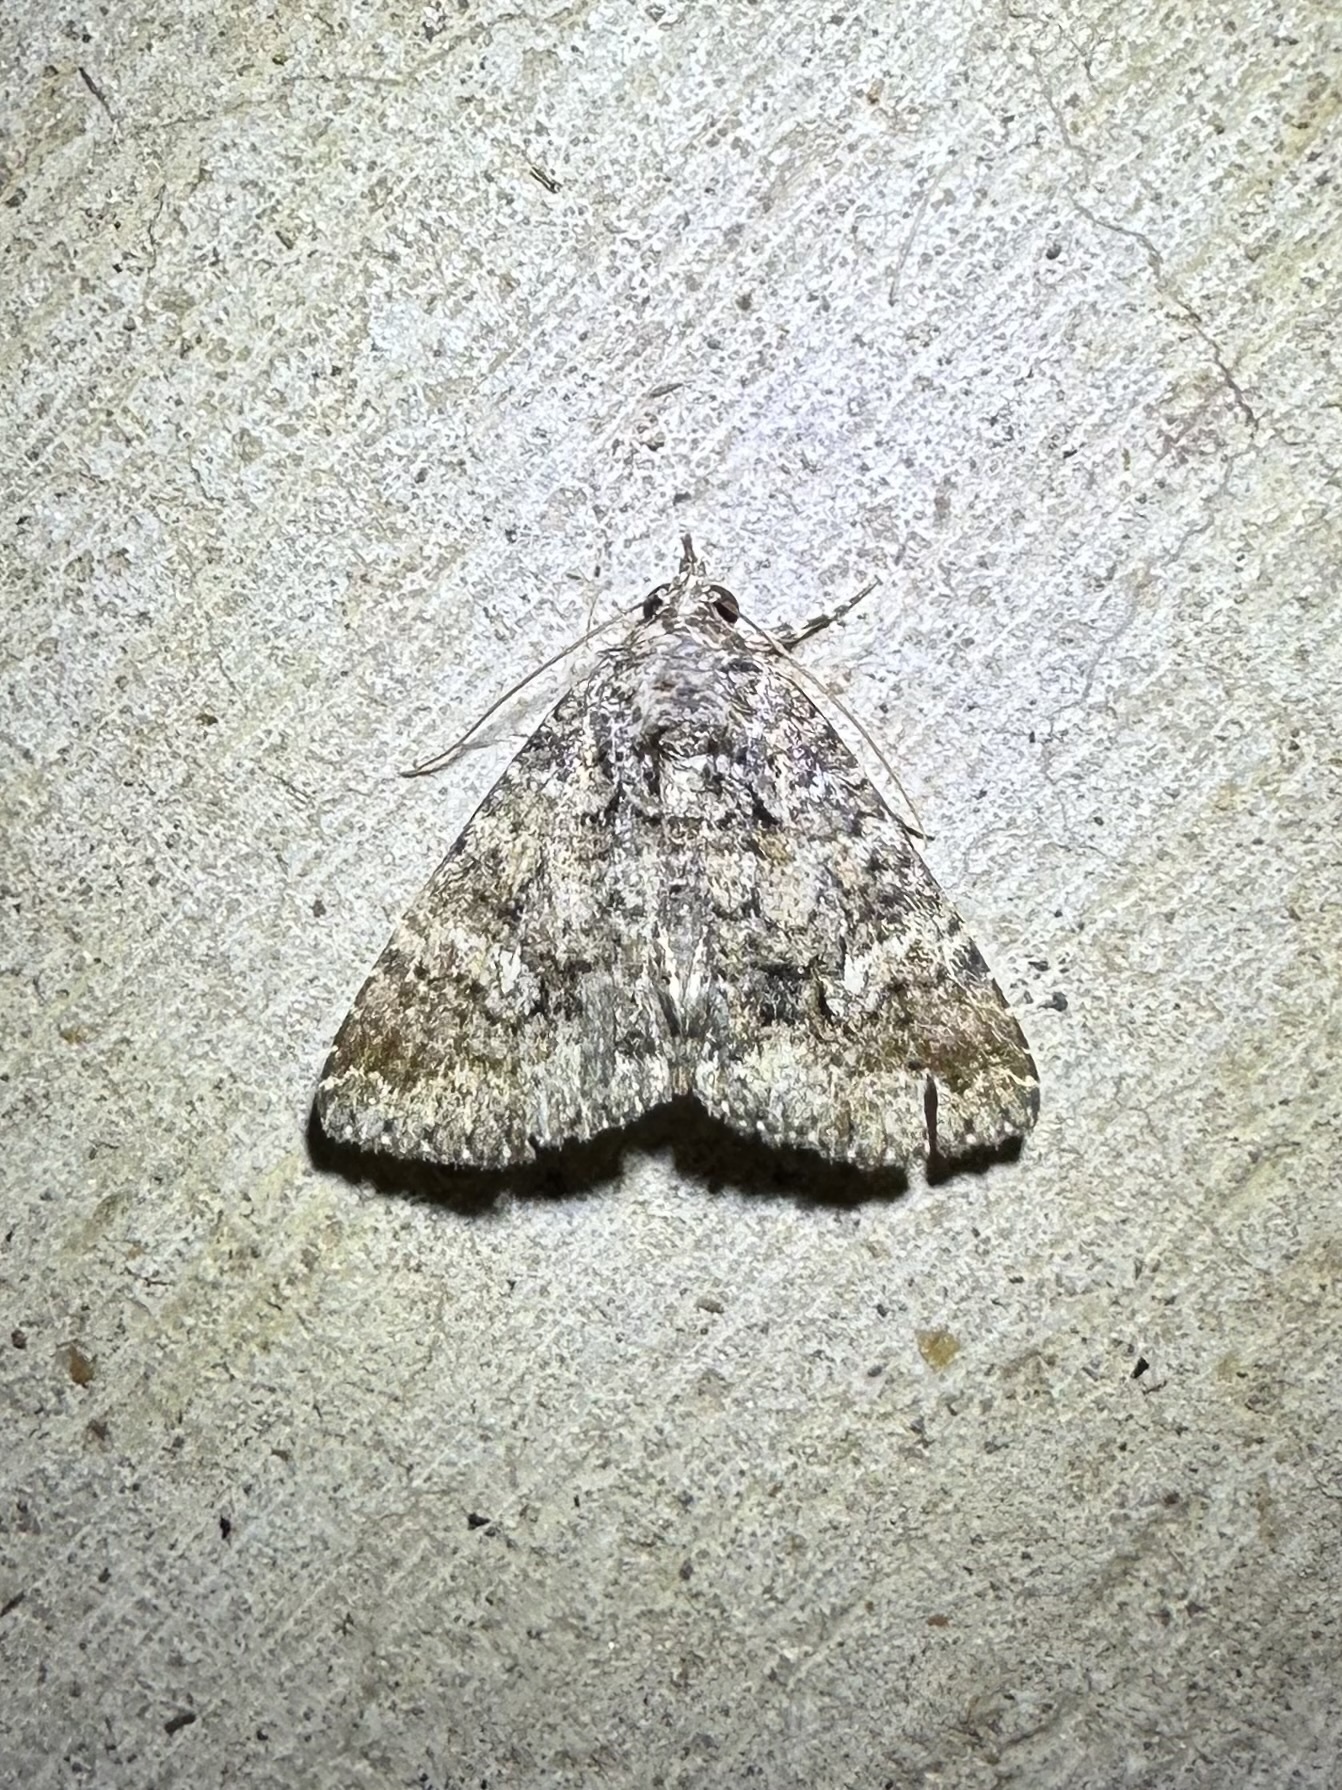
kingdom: Animalia
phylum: Arthropoda
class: Insecta
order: Lepidoptera
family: Erebidae
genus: Eubolina
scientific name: Eubolina impartialis
